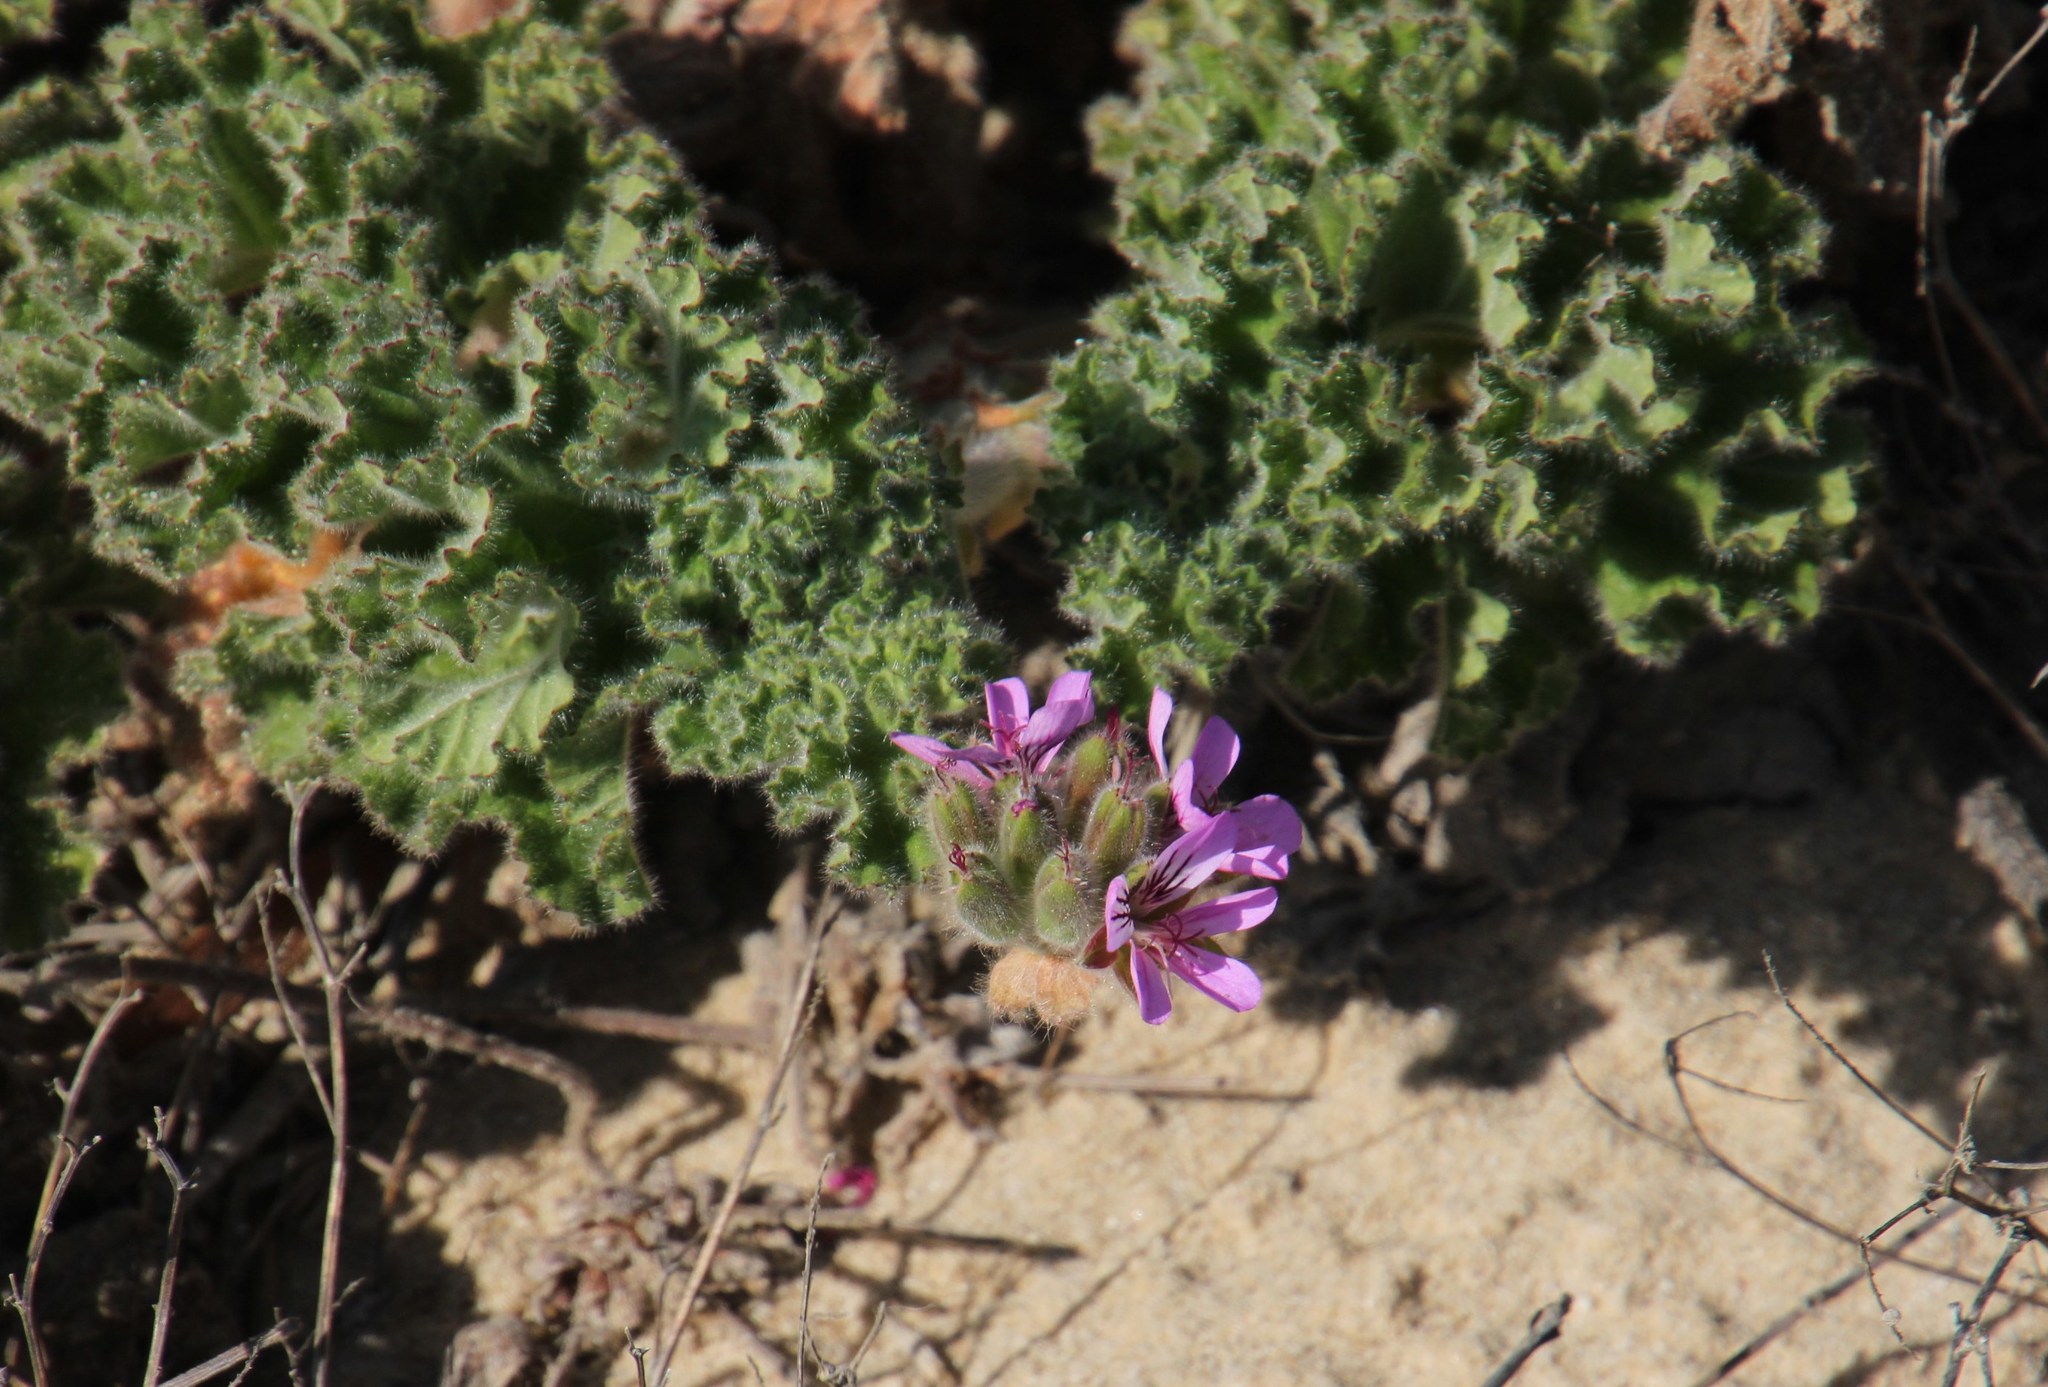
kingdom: Plantae
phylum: Tracheophyta
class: Magnoliopsida
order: Geraniales
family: Geraniaceae
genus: Pelargonium
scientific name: Pelargonium capitatum
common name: Rose scented geranium
